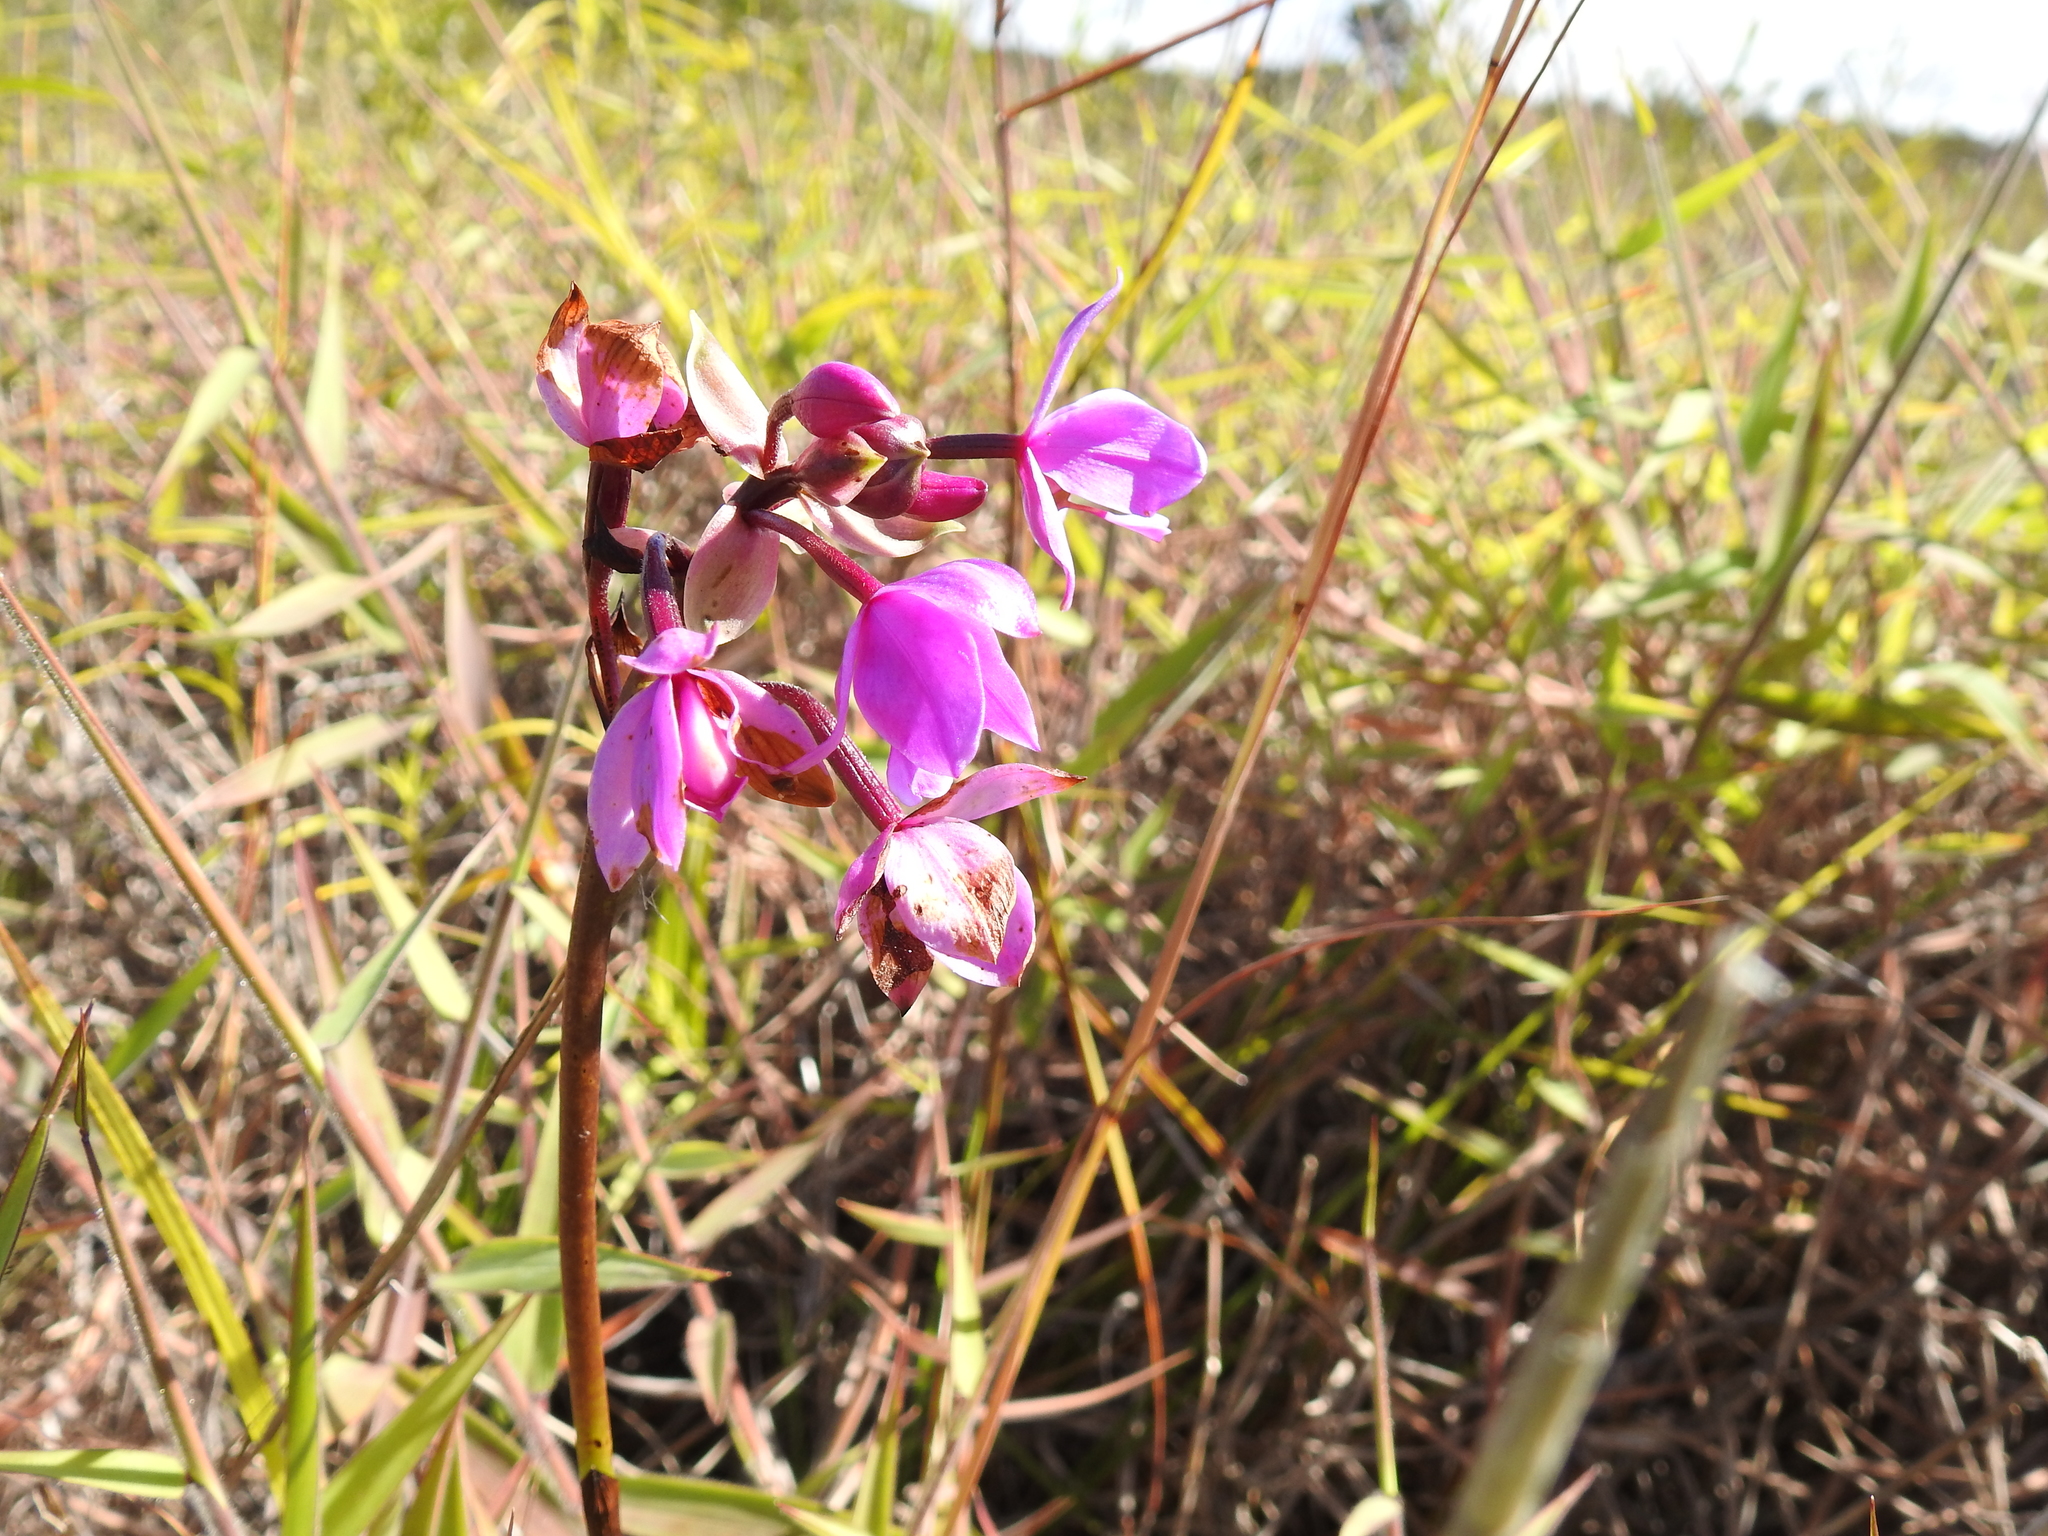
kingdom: Plantae
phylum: Tracheophyta
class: Liliopsida
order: Asparagales
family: Orchidaceae
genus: Spathoglottis
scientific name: Spathoglottis plicata
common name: Philippine ground orchid
